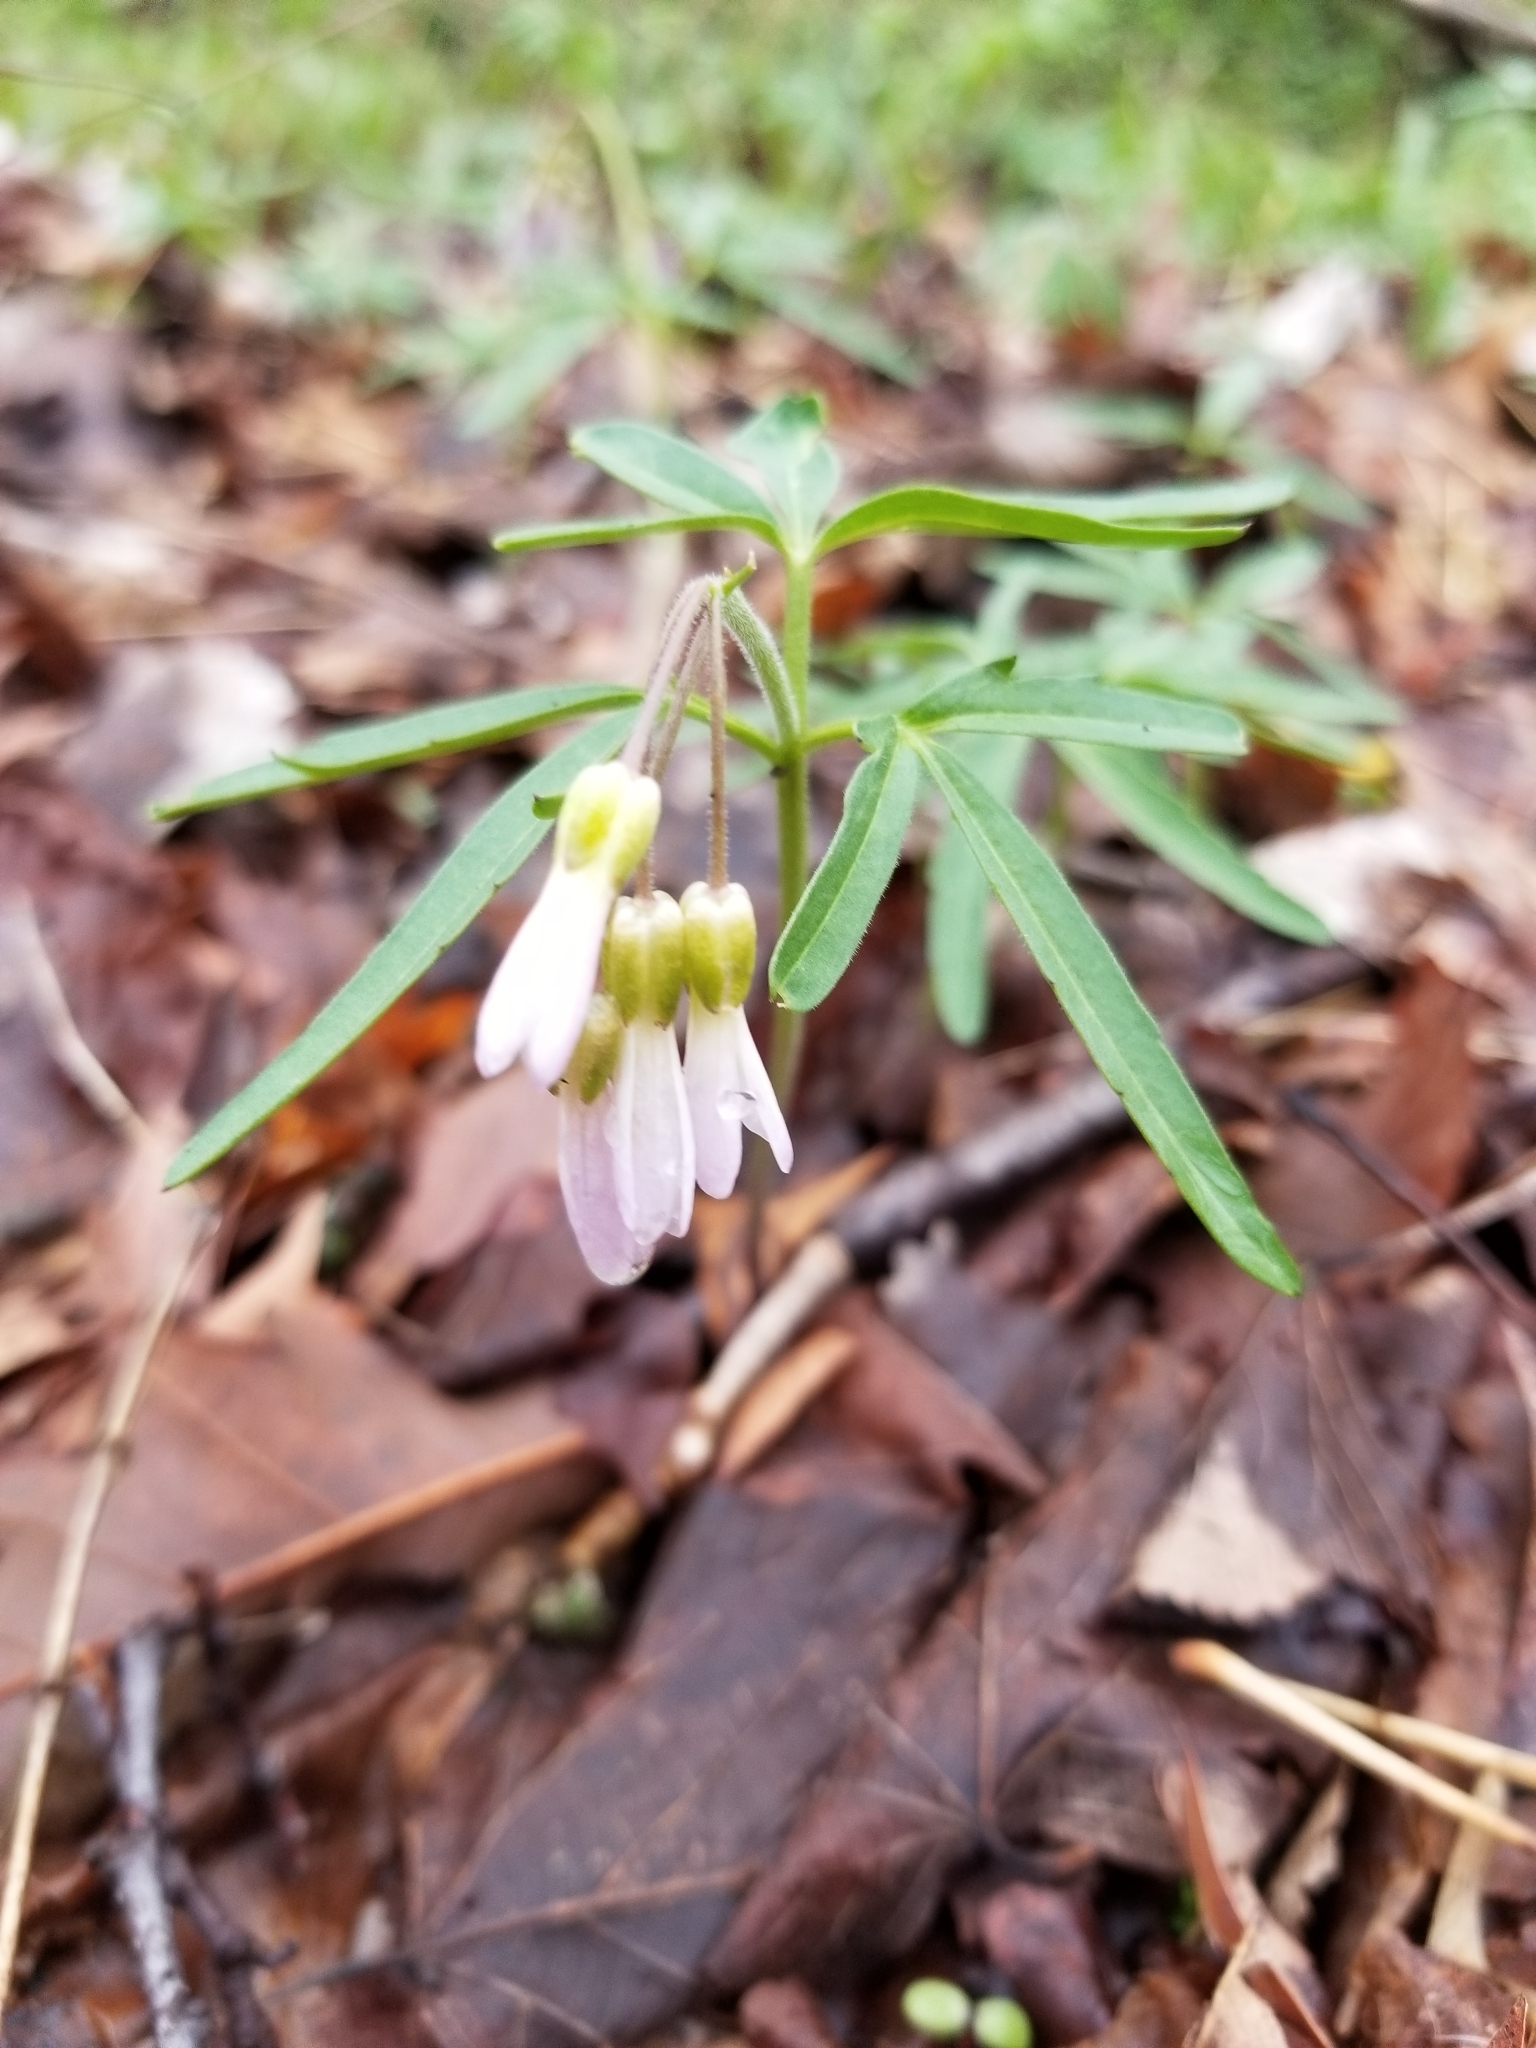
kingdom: Plantae
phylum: Tracheophyta
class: Magnoliopsida
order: Brassicales
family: Brassicaceae
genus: Cardamine
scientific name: Cardamine concatenata
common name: Cut-leaf toothcup
